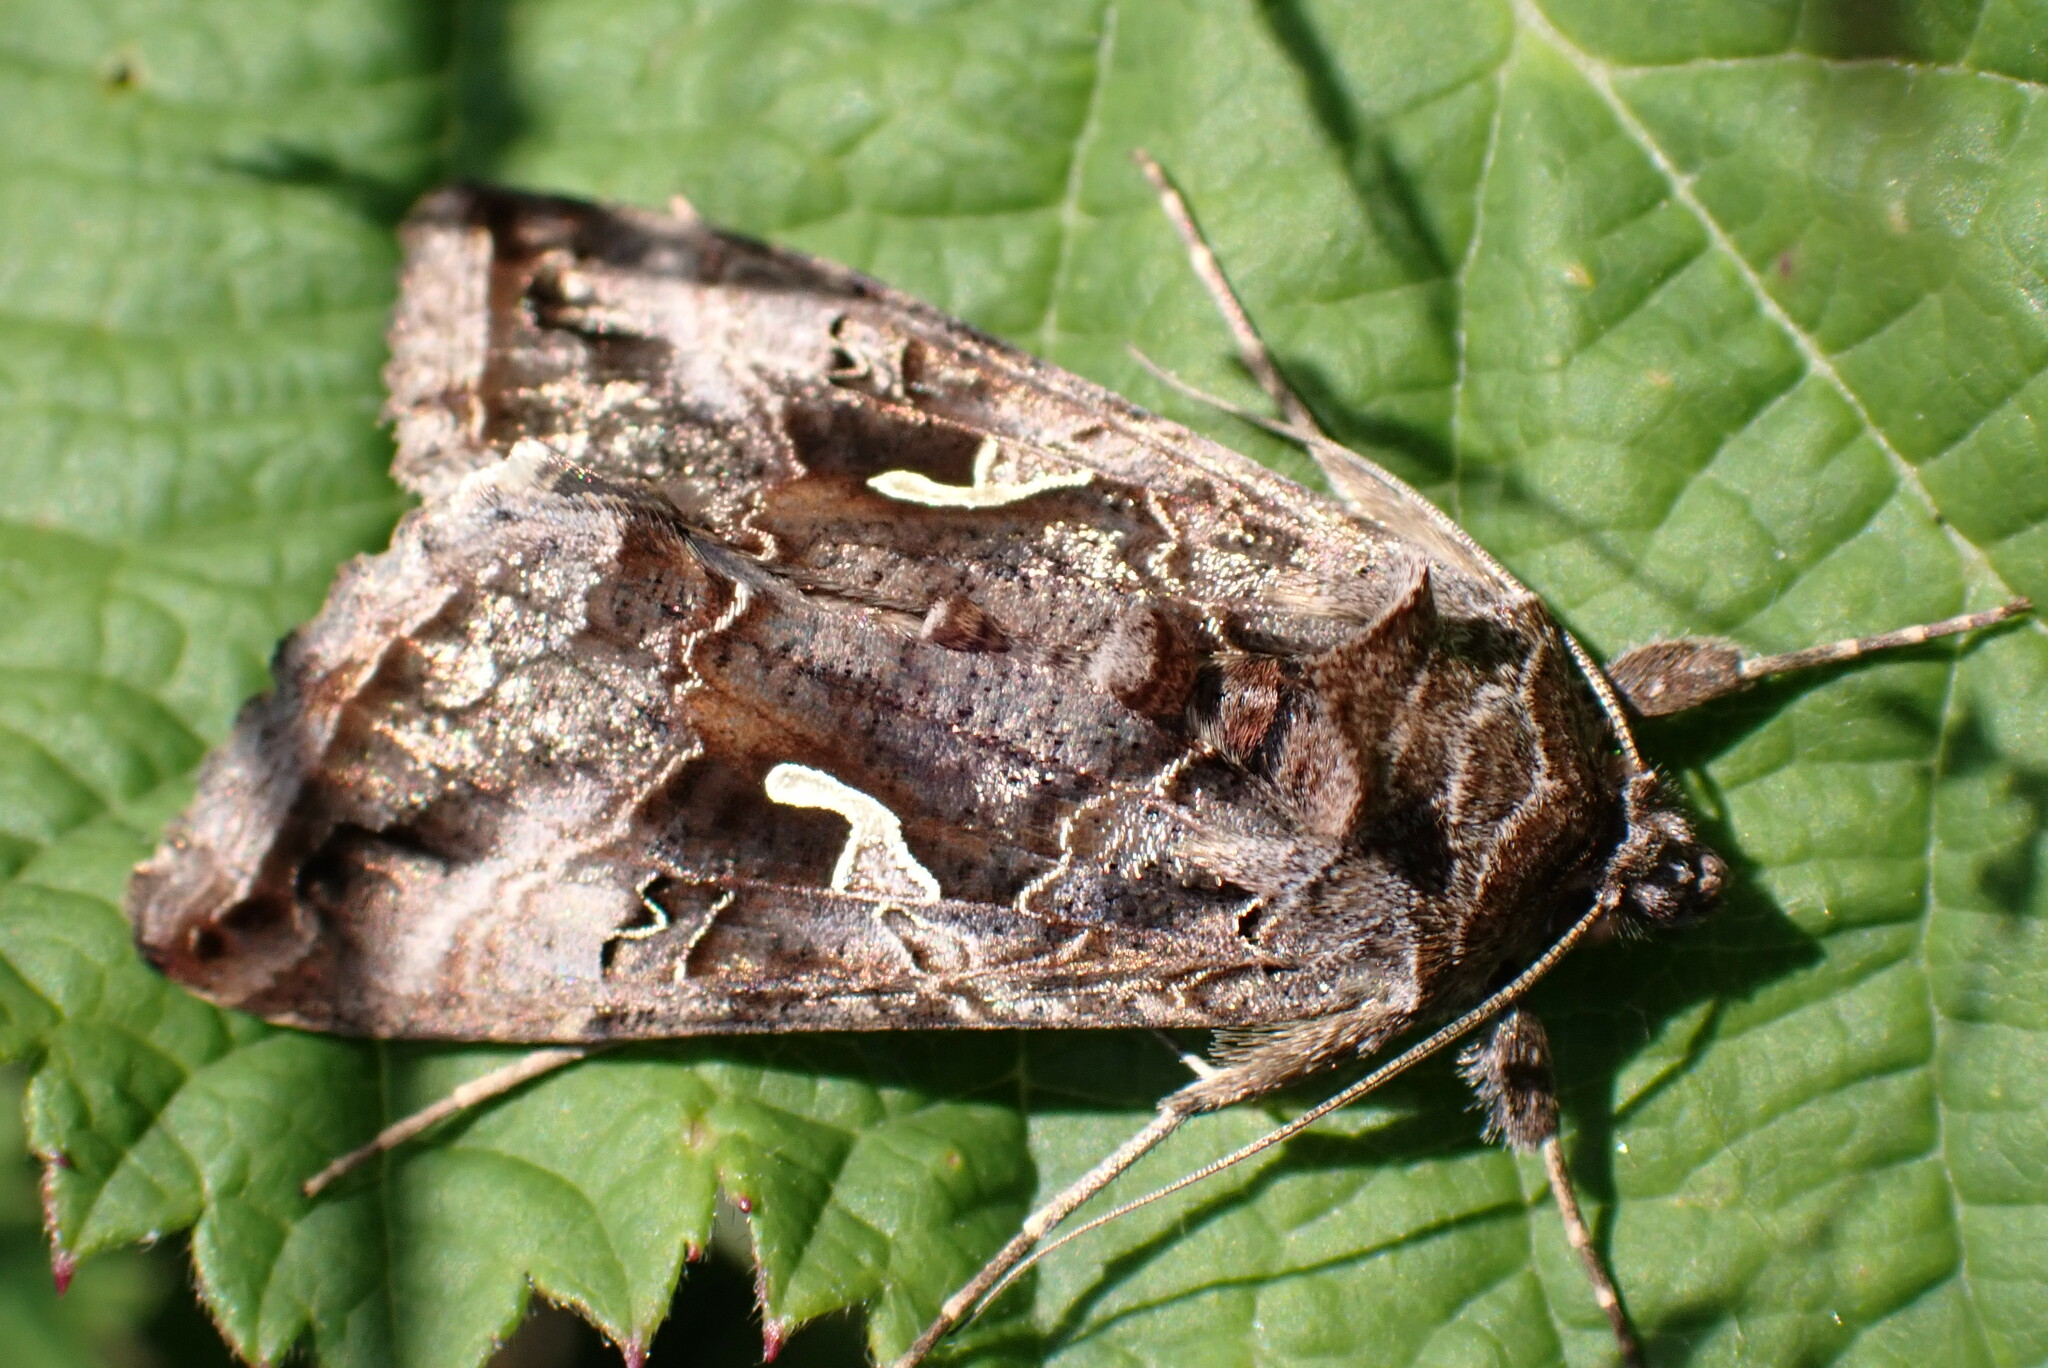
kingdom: Animalia
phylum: Arthropoda
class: Insecta
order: Lepidoptera
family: Noctuidae
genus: Autographa
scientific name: Autographa gamma
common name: Silver y
